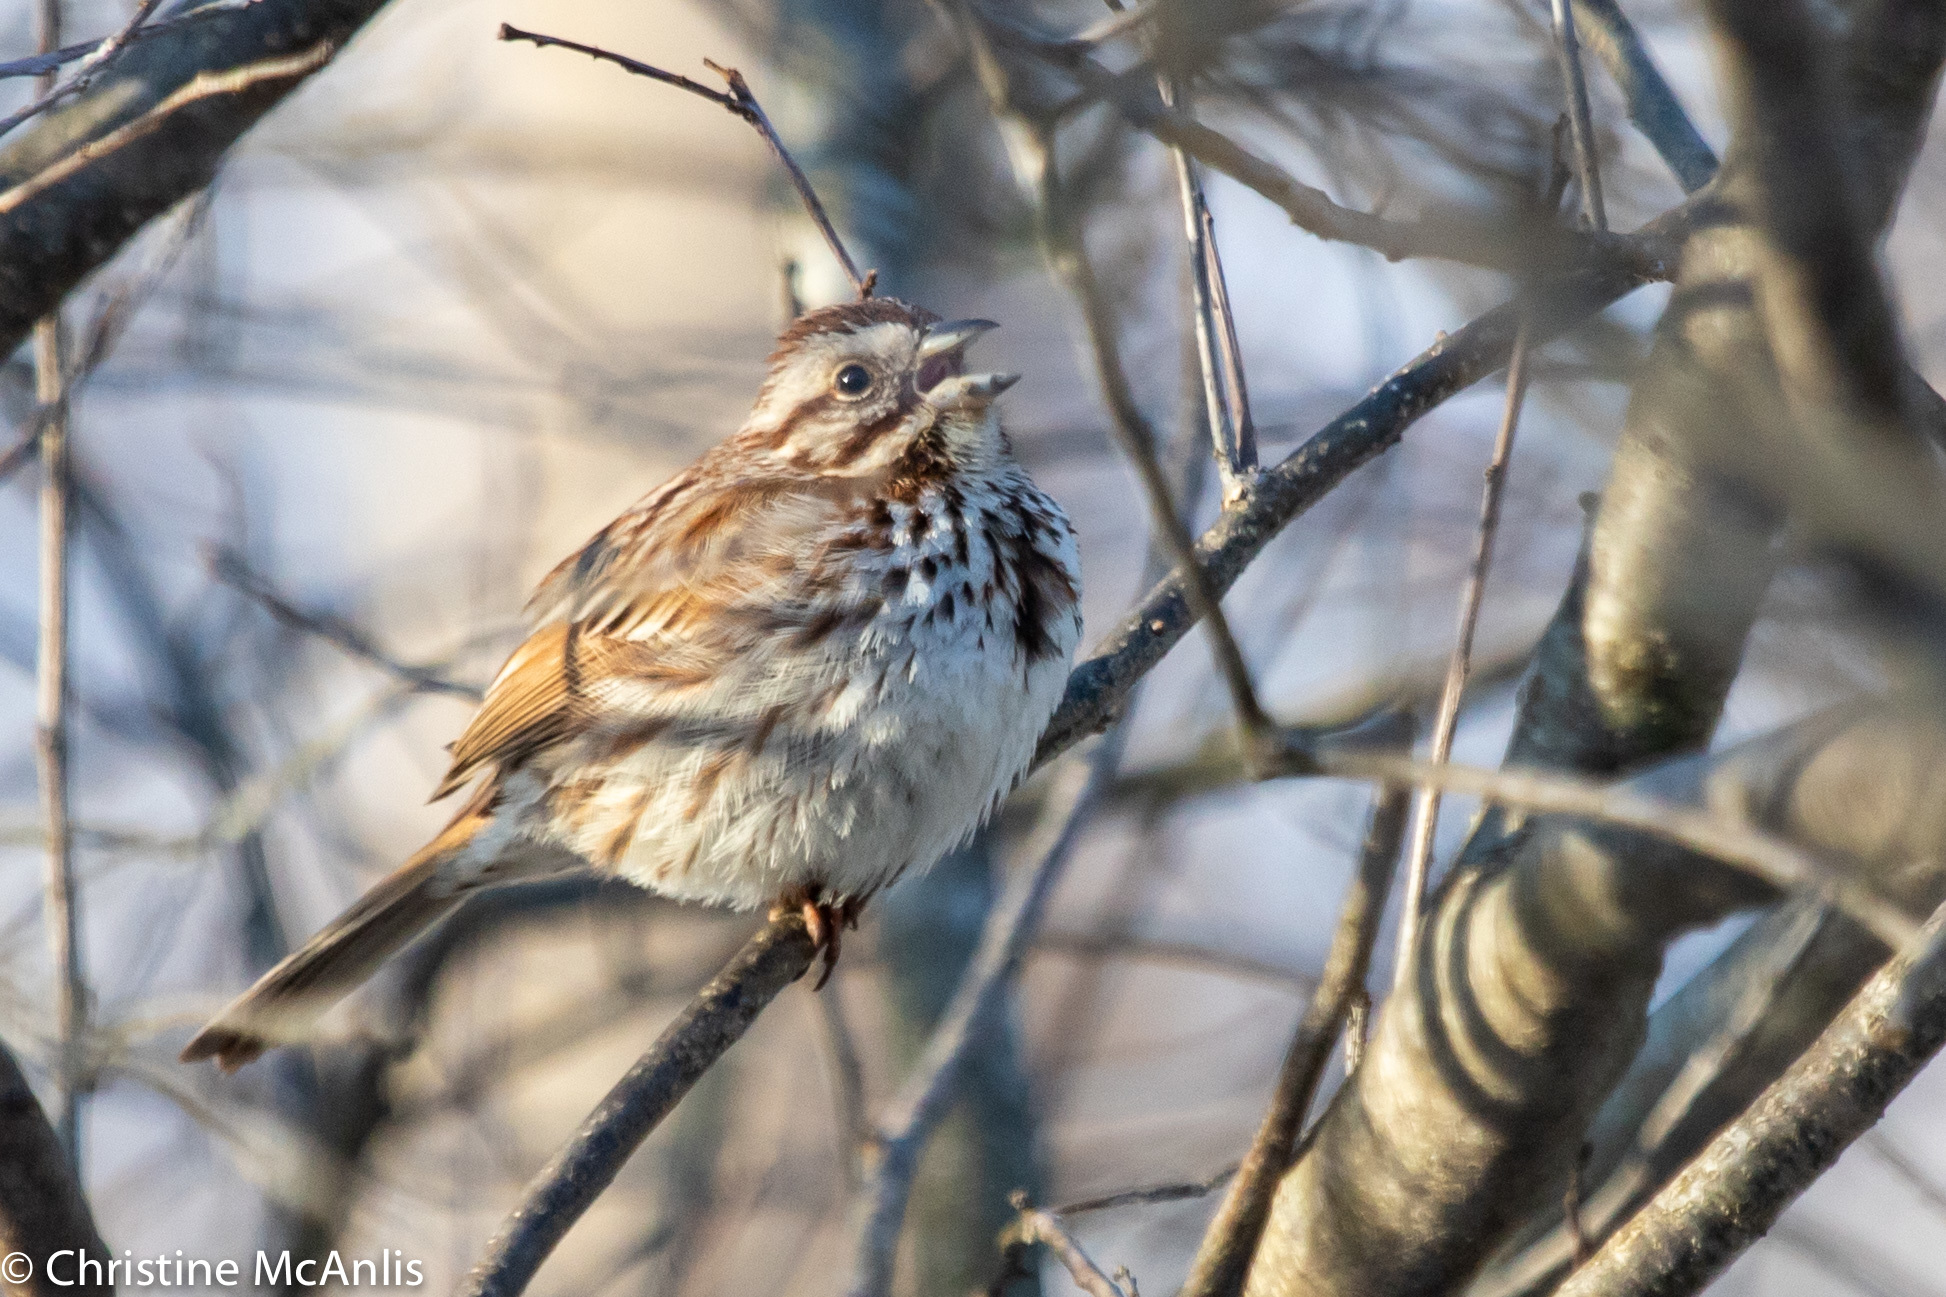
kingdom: Animalia
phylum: Chordata
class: Aves
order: Passeriformes
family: Passerellidae
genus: Melospiza
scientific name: Melospiza melodia
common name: Song sparrow
